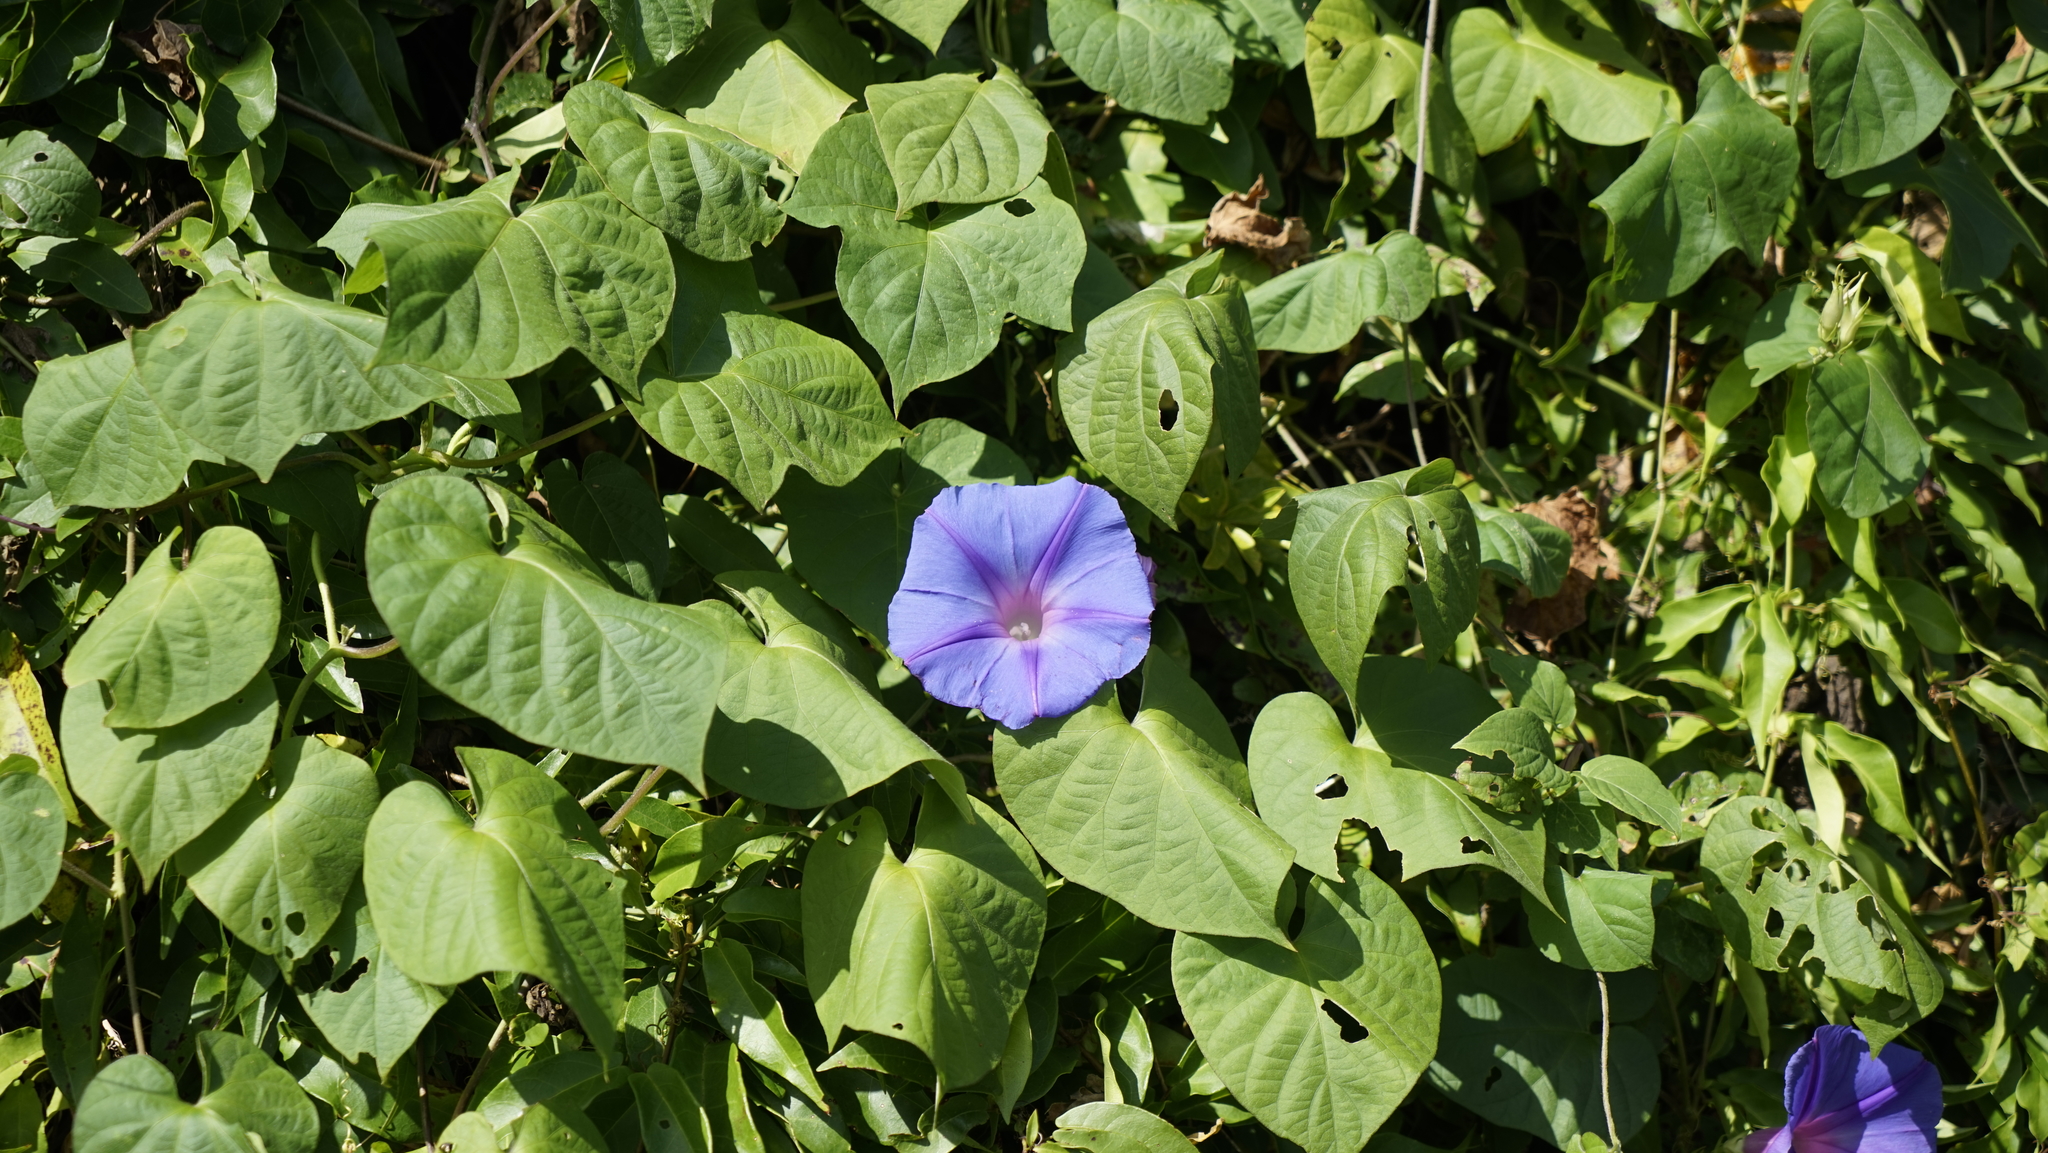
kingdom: Plantae
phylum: Tracheophyta
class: Magnoliopsida
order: Solanales
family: Convolvulaceae
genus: Ipomoea
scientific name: Ipomoea indica
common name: Blue dawnflower
